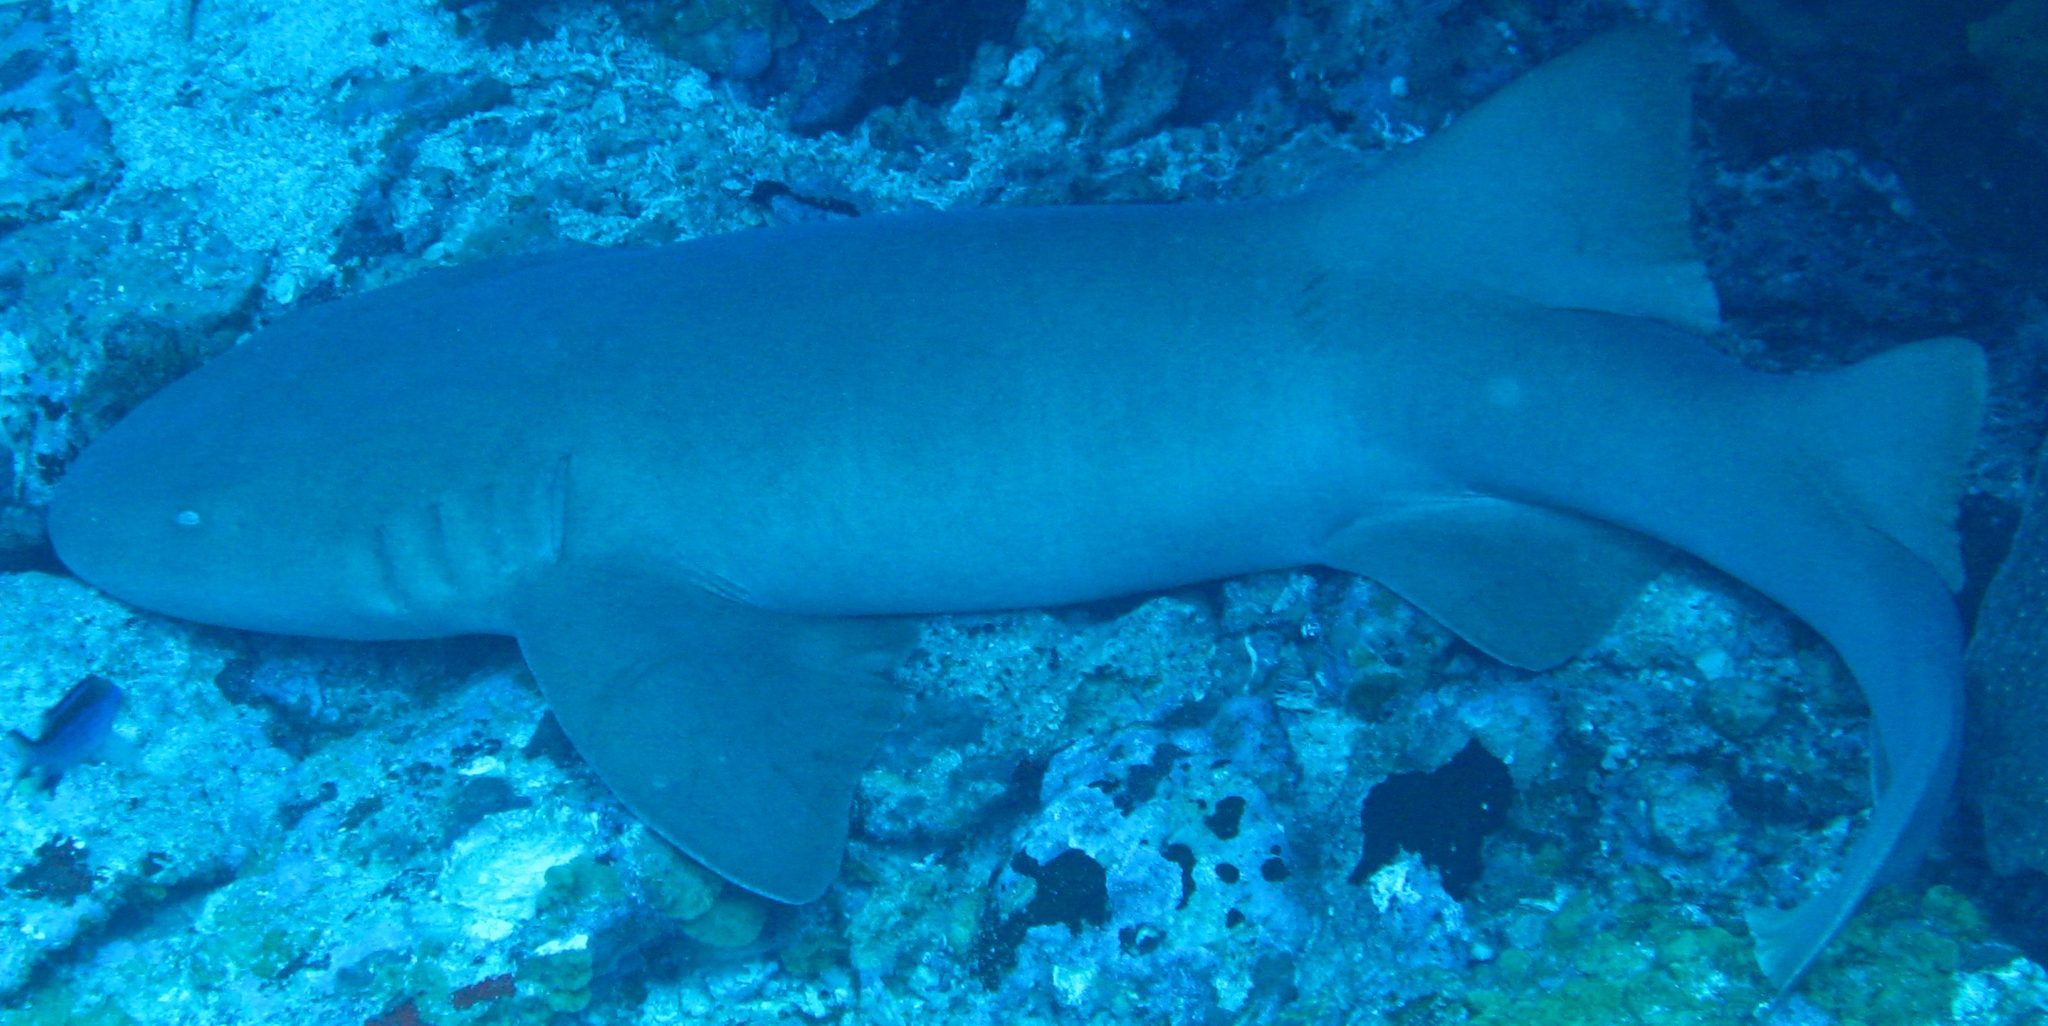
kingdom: Animalia
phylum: Chordata
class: Elasmobranchii
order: Orectolobiformes
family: Ginglymostomatidae
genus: Ginglymostoma
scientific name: Ginglymostoma cirratum
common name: Nurse shark
